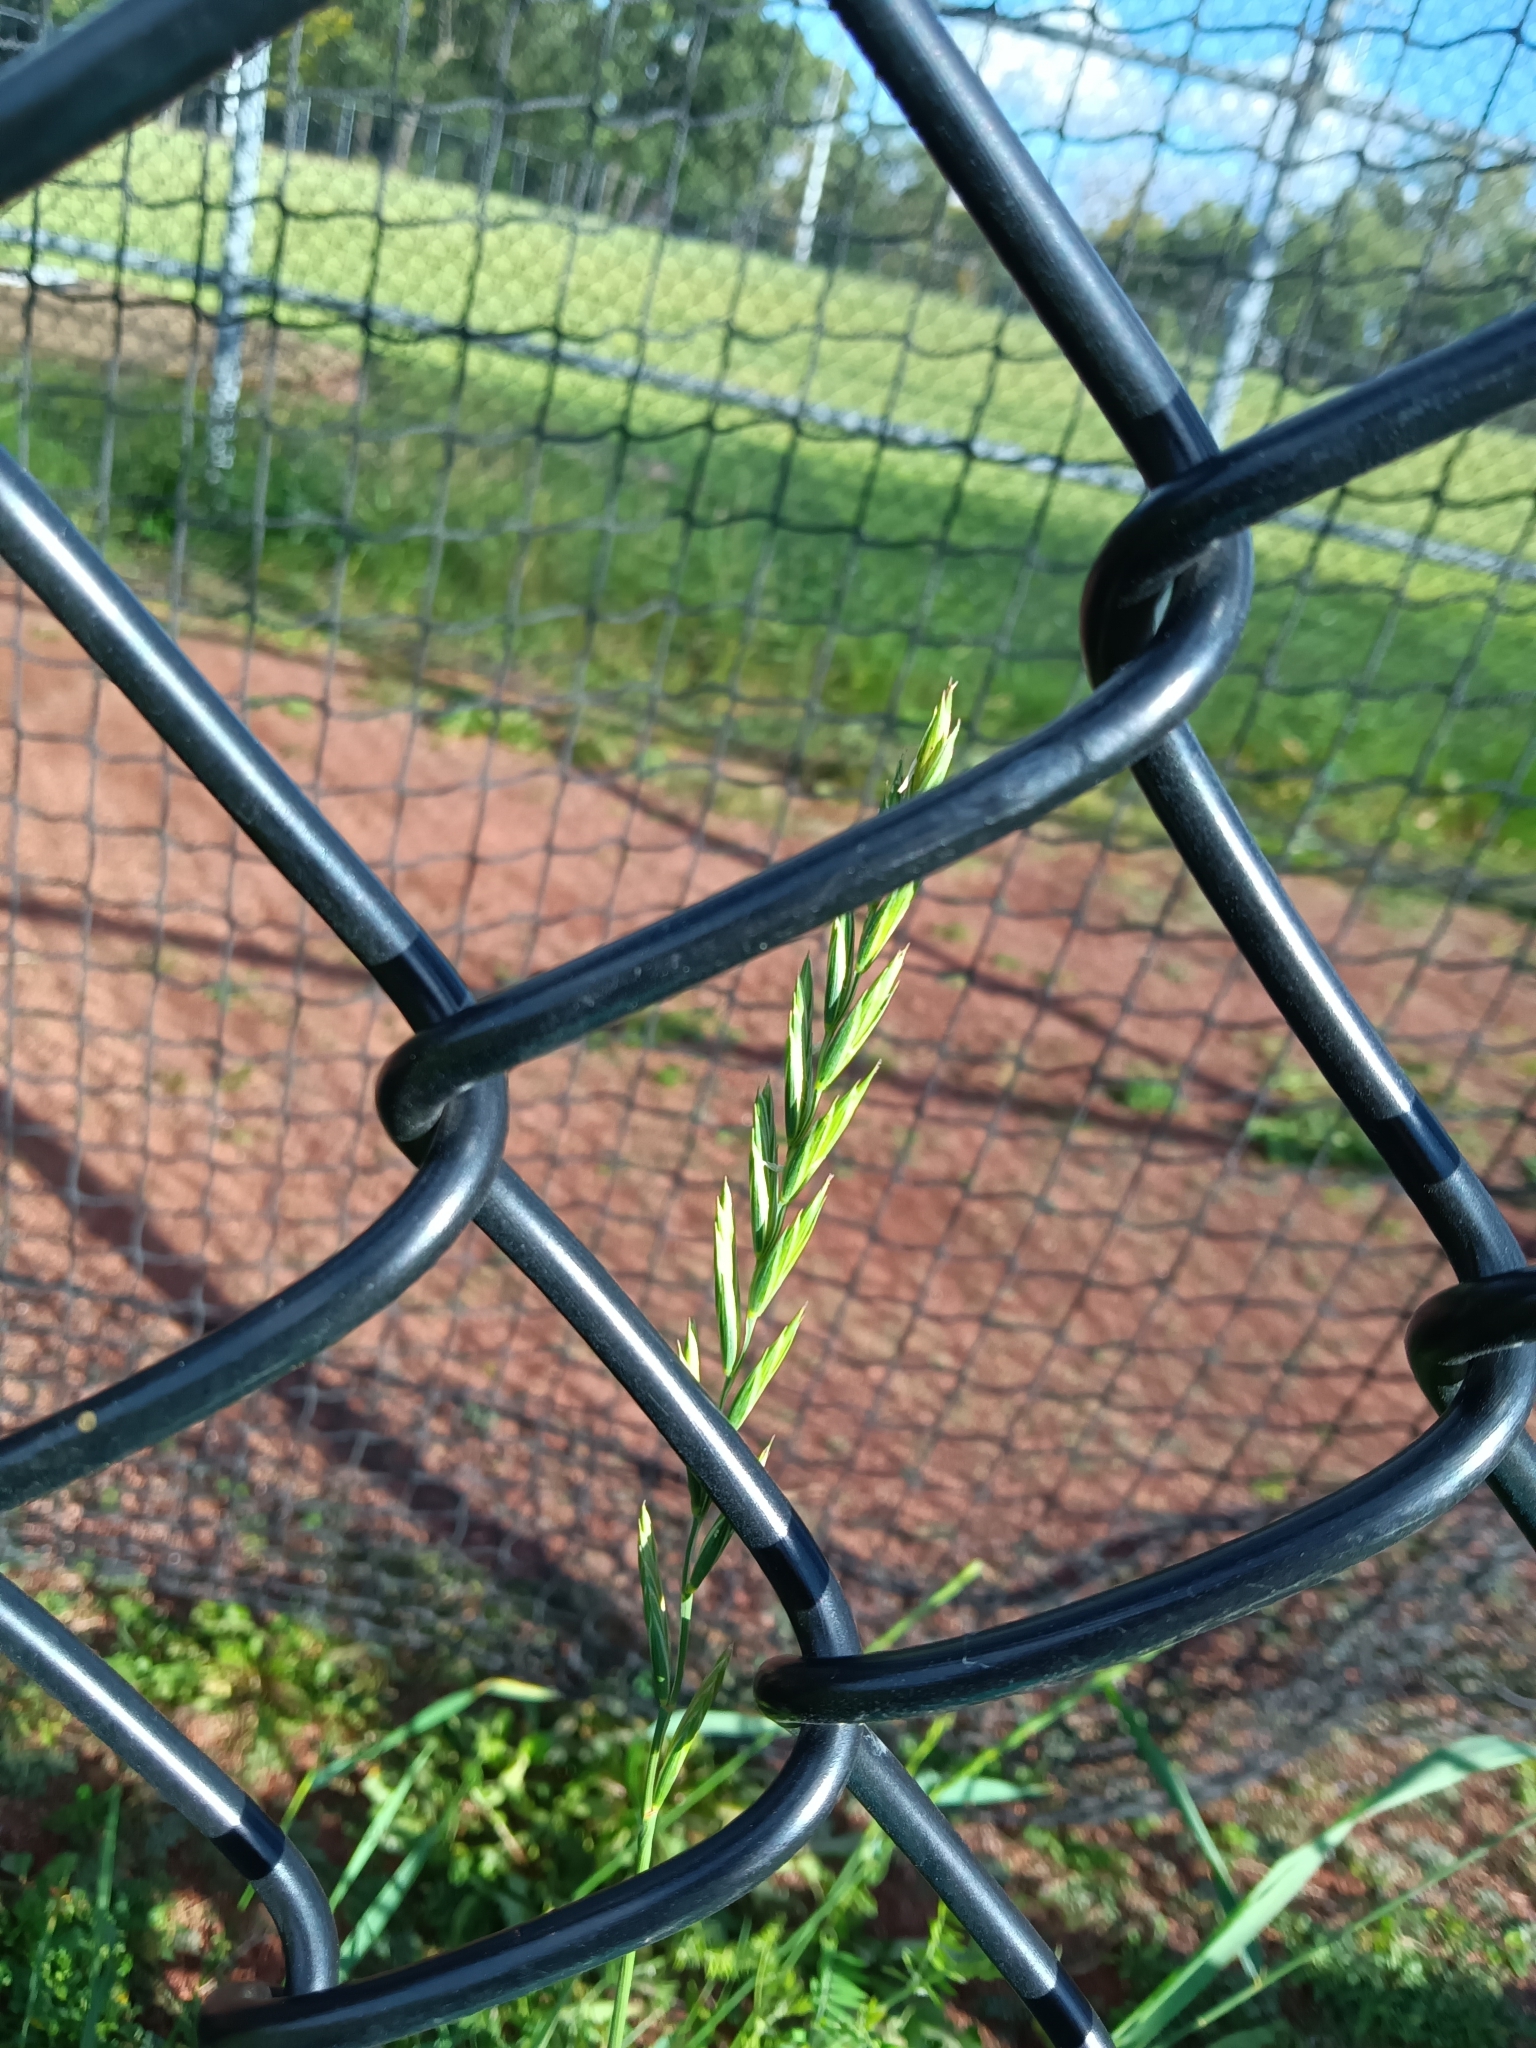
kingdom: Plantae
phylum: Tracheophyta
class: Liliopsida
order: Poales
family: Poaceae
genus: Elymus
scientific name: Elymus repens
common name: Quackgrass
